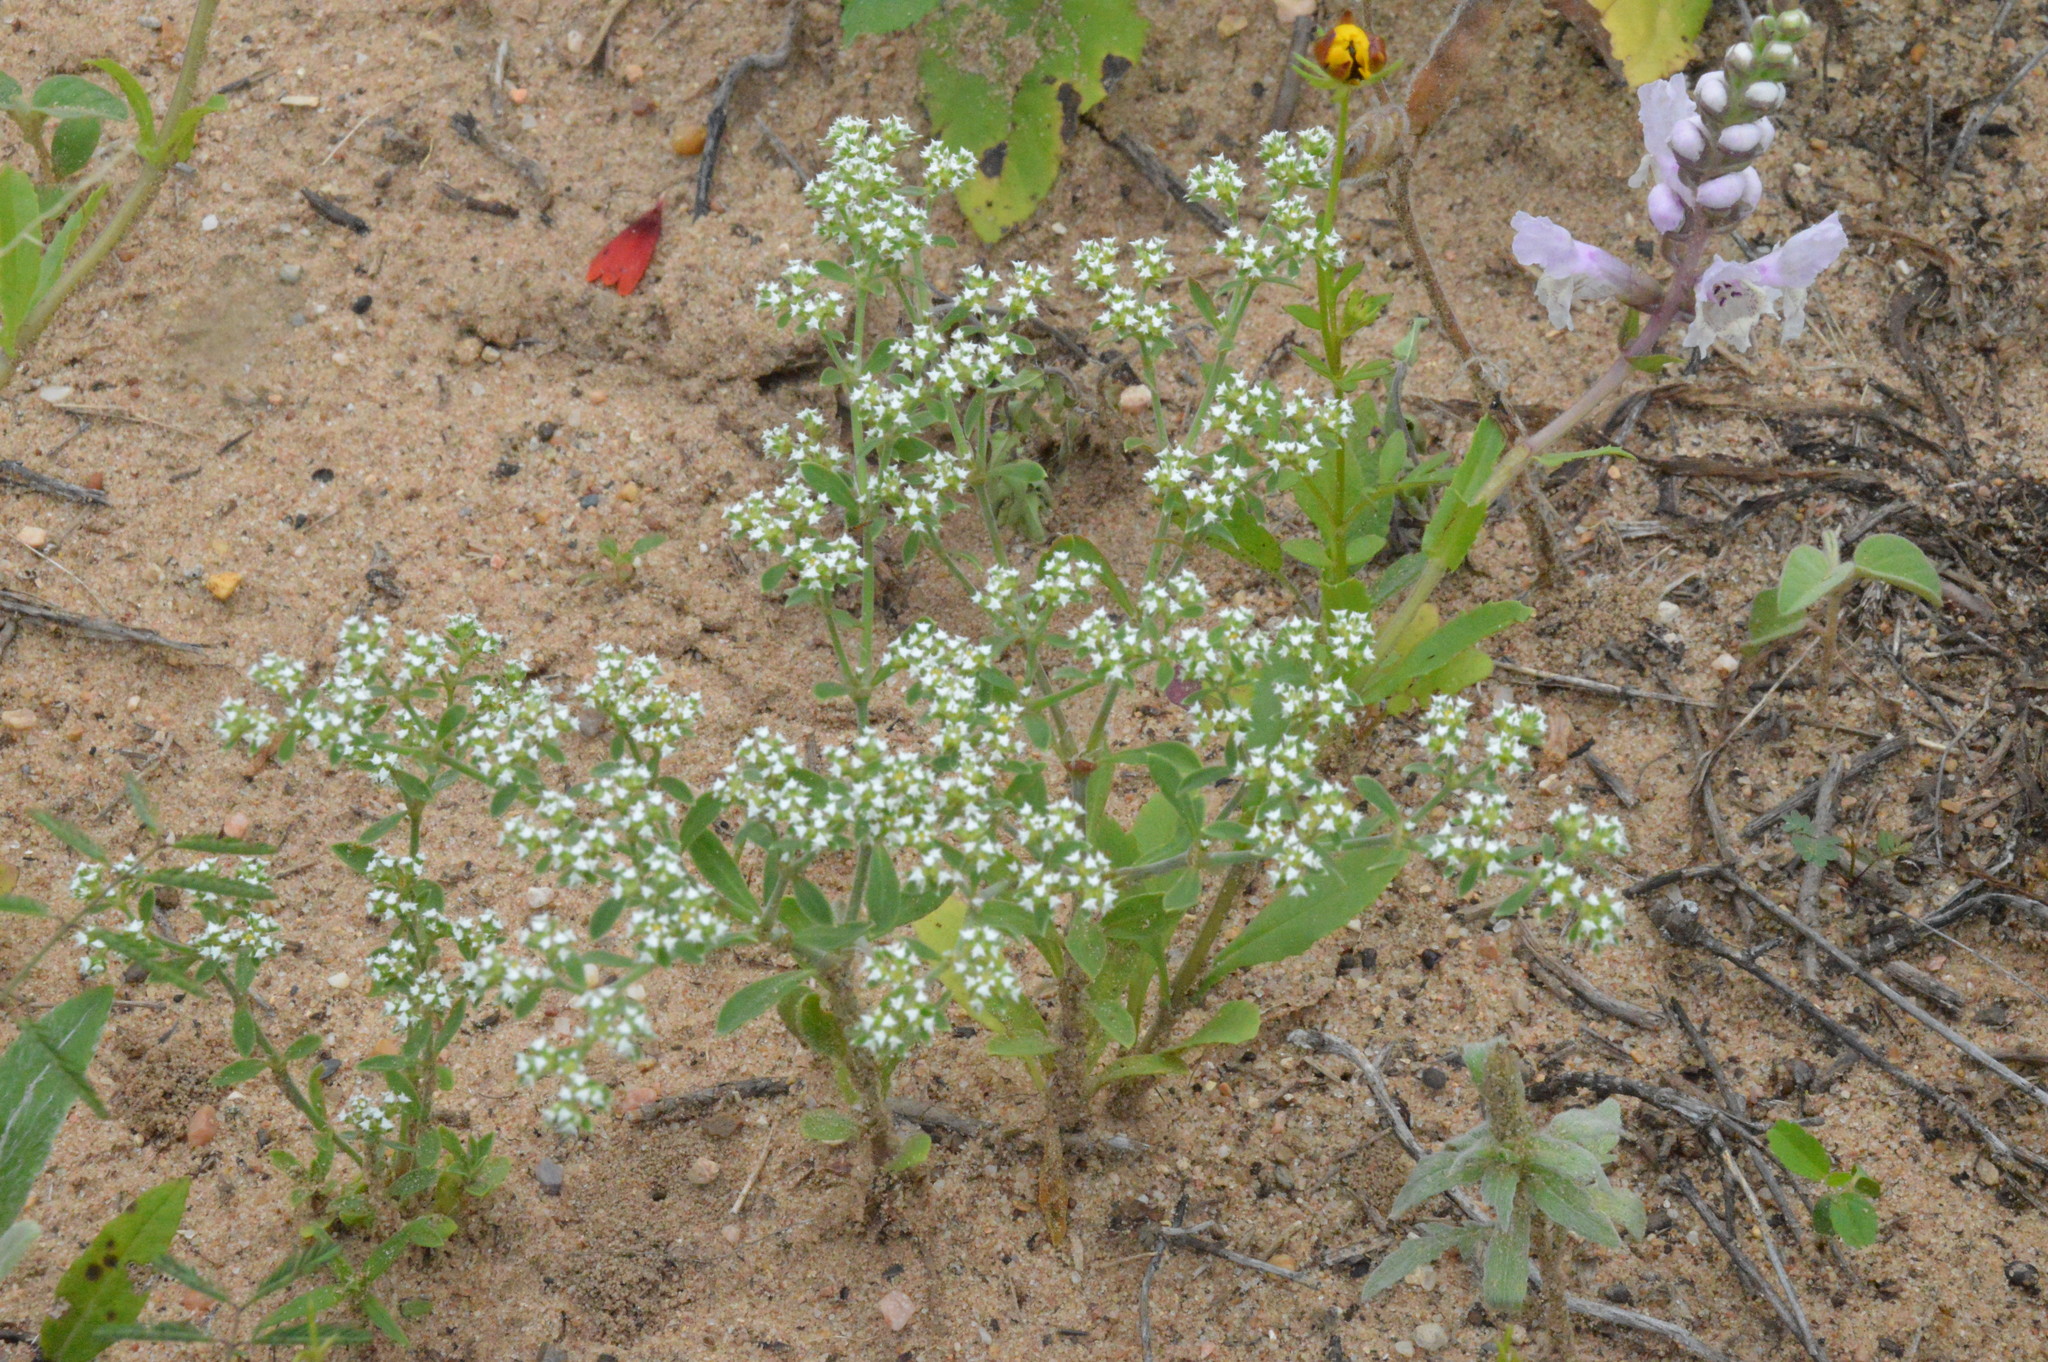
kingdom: Plantae
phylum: Tracheophyta
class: Magnoliopsida
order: Caryophyllales
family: Caryophyllaceae
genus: Paronychia
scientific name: Paronychia drummondii
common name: Drummond's nailwort
